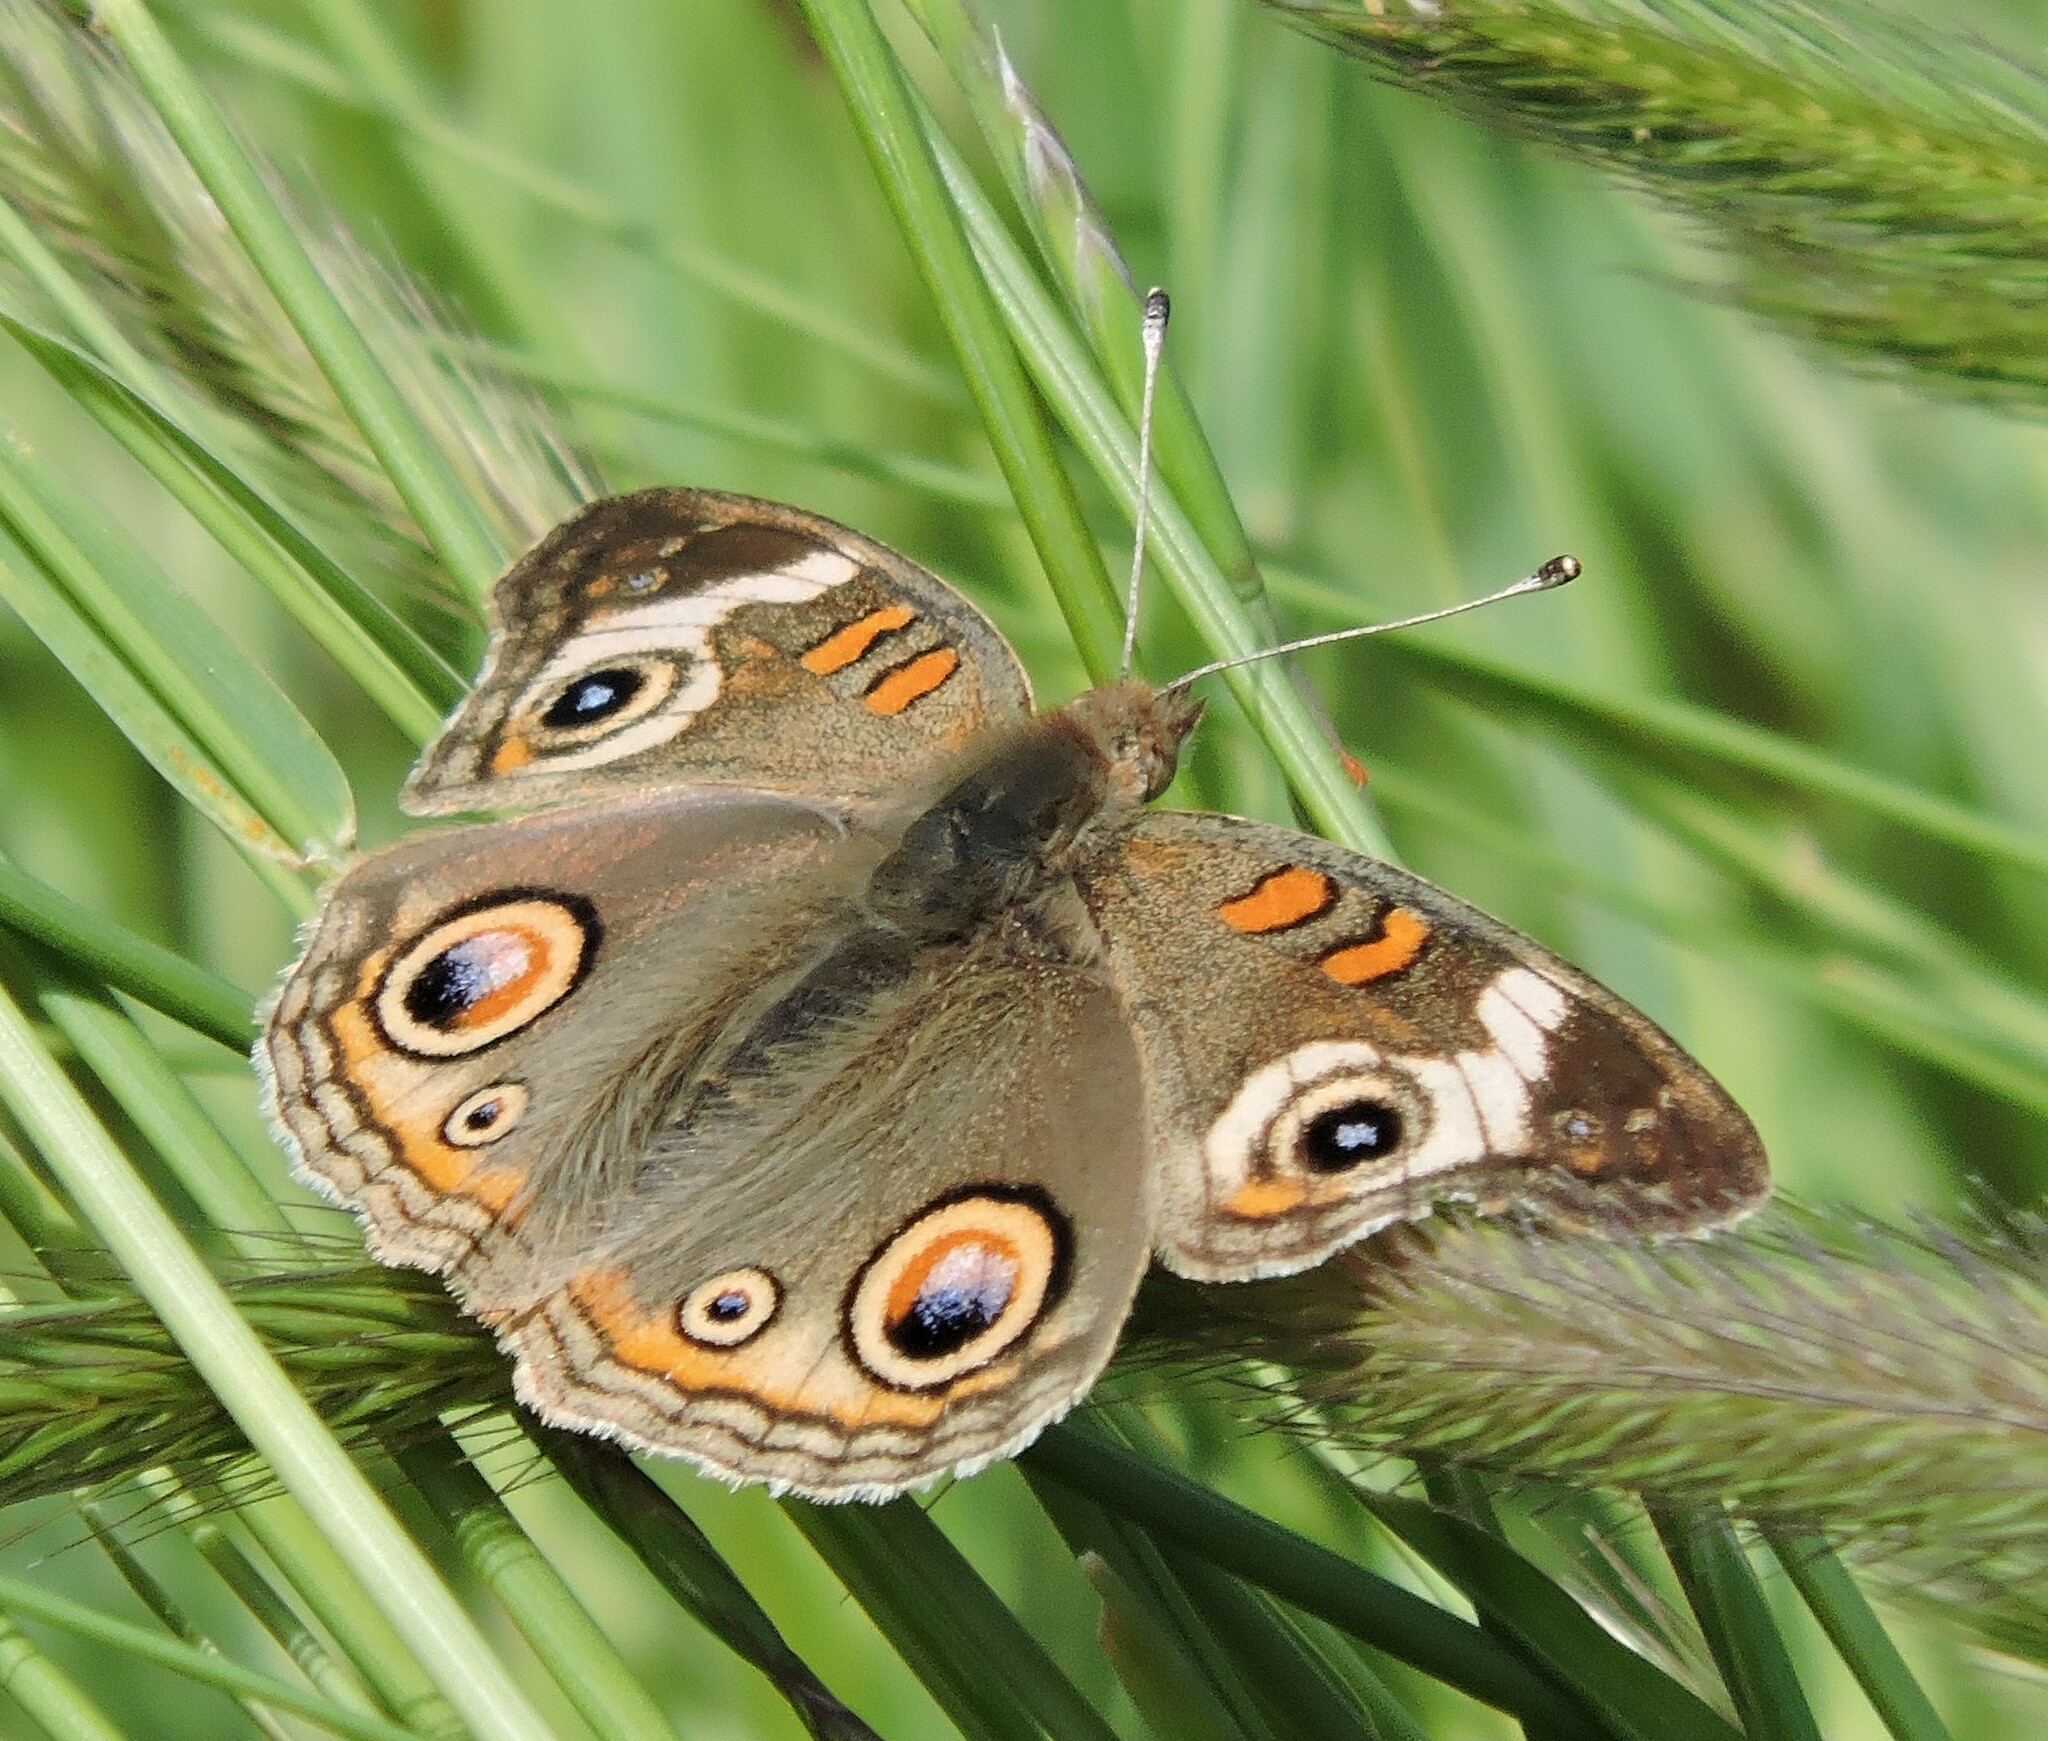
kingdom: Animalia
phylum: Arthropoda
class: Insecta
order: Lepidoptera
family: Nymphalidae
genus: Junonia
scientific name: Junonia grisea
